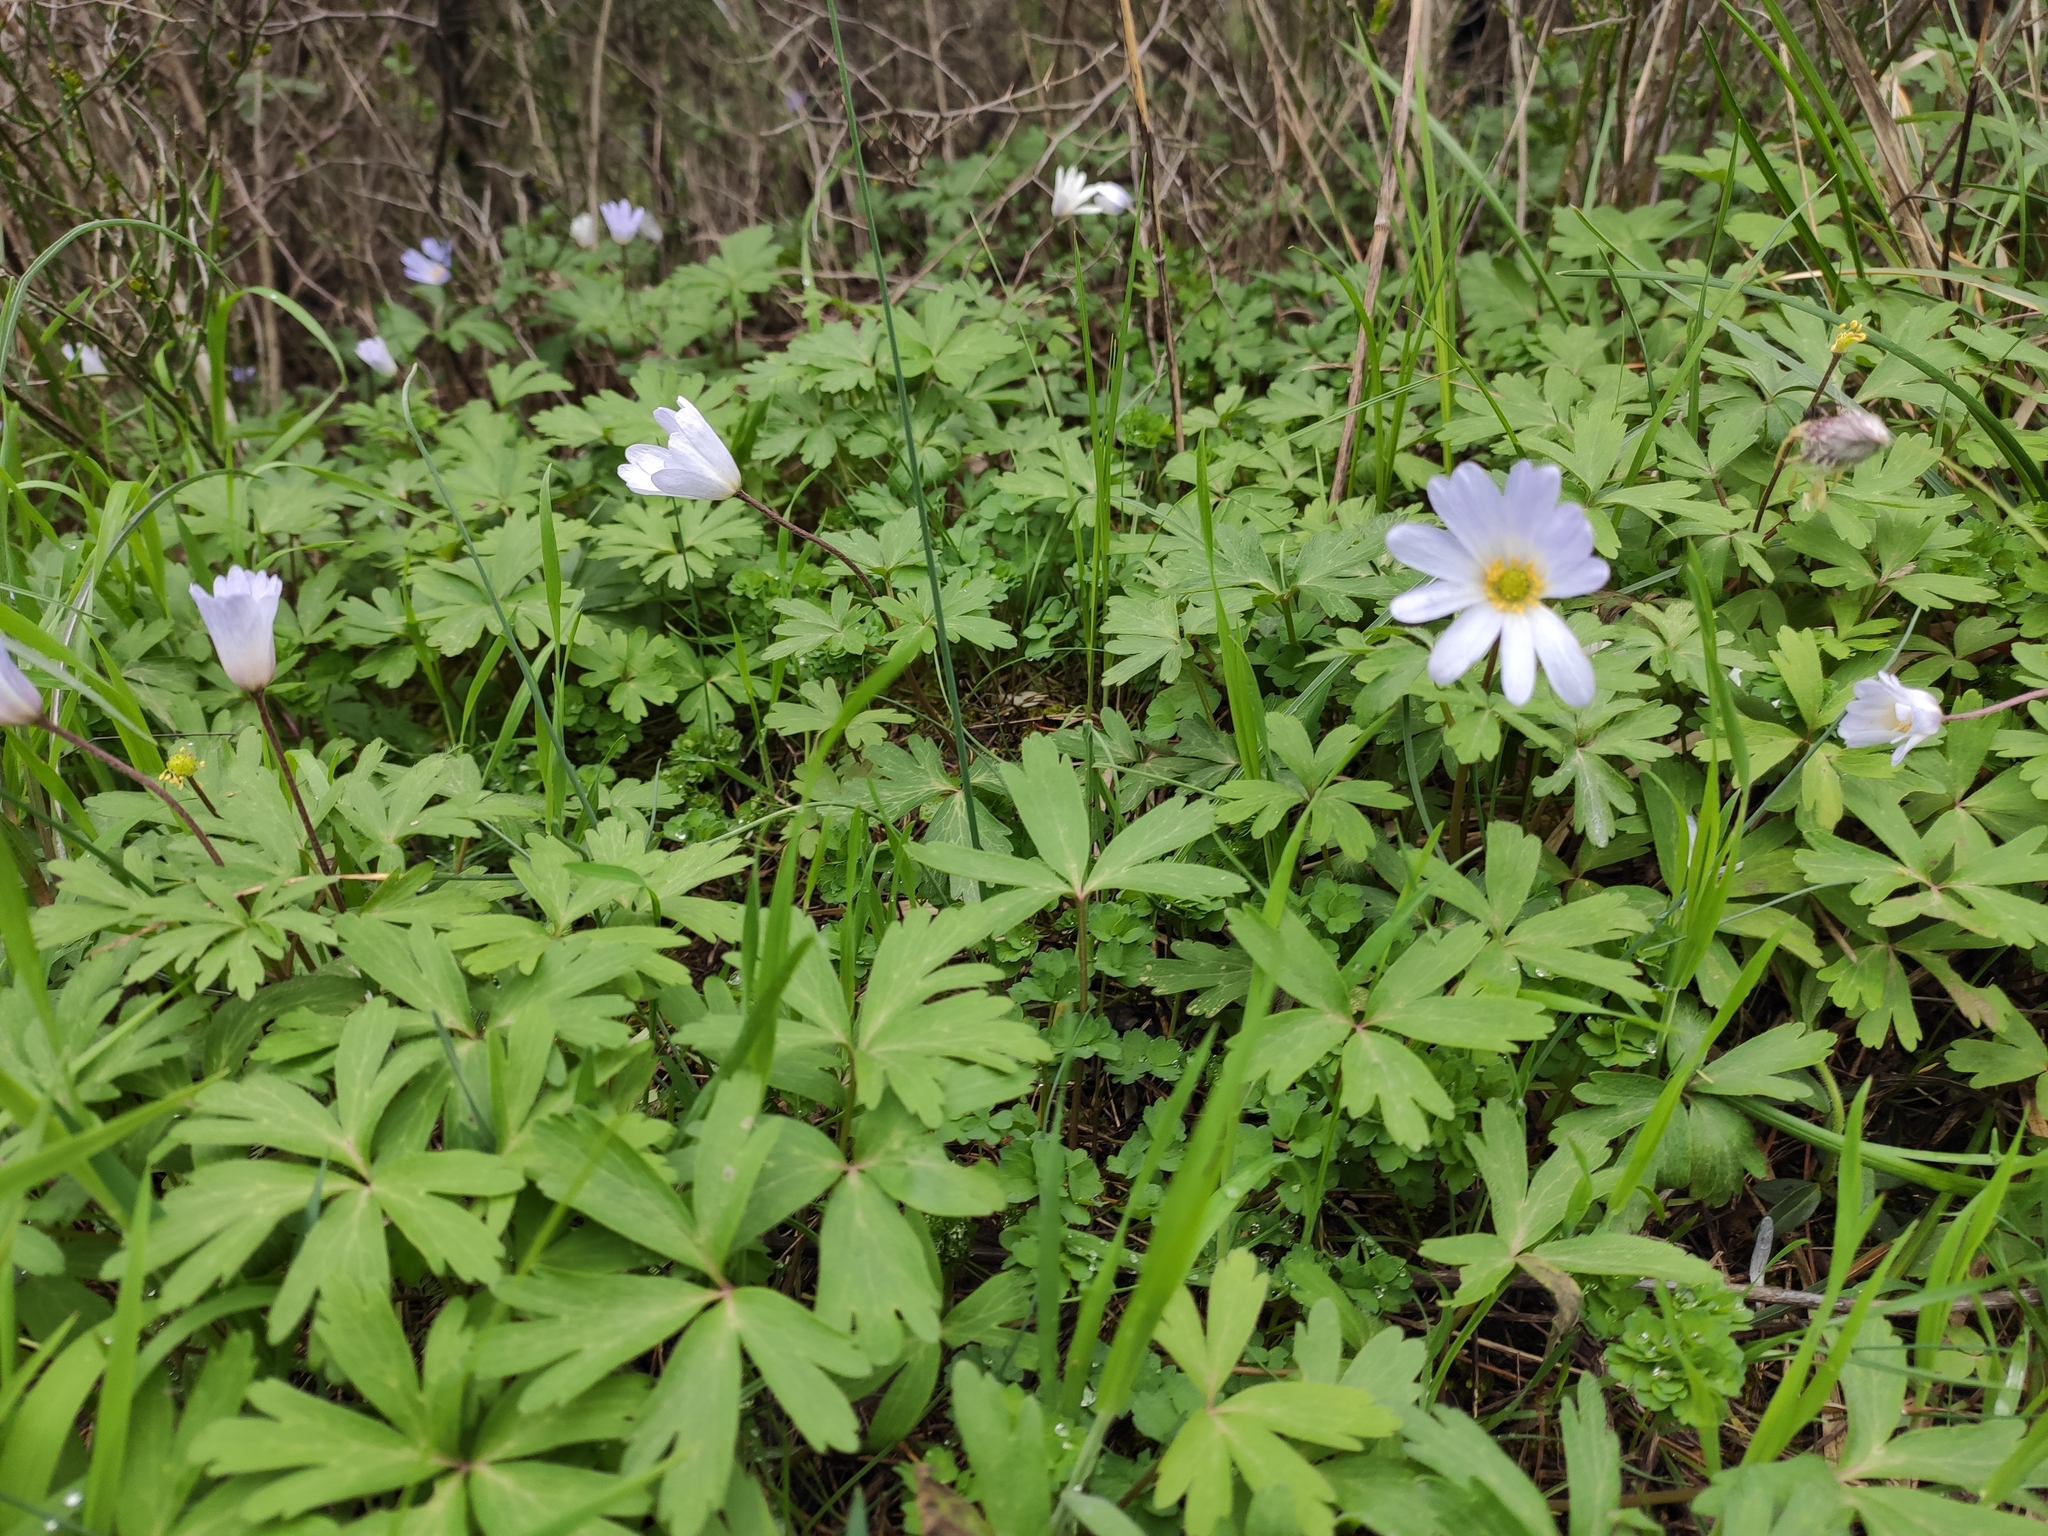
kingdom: Plantae
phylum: Tracheophyta
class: Magnoliopsida
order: Ranunculales
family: Ranunculaceae
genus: Anemone
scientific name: Anemone blanda
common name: Balkan anemone
